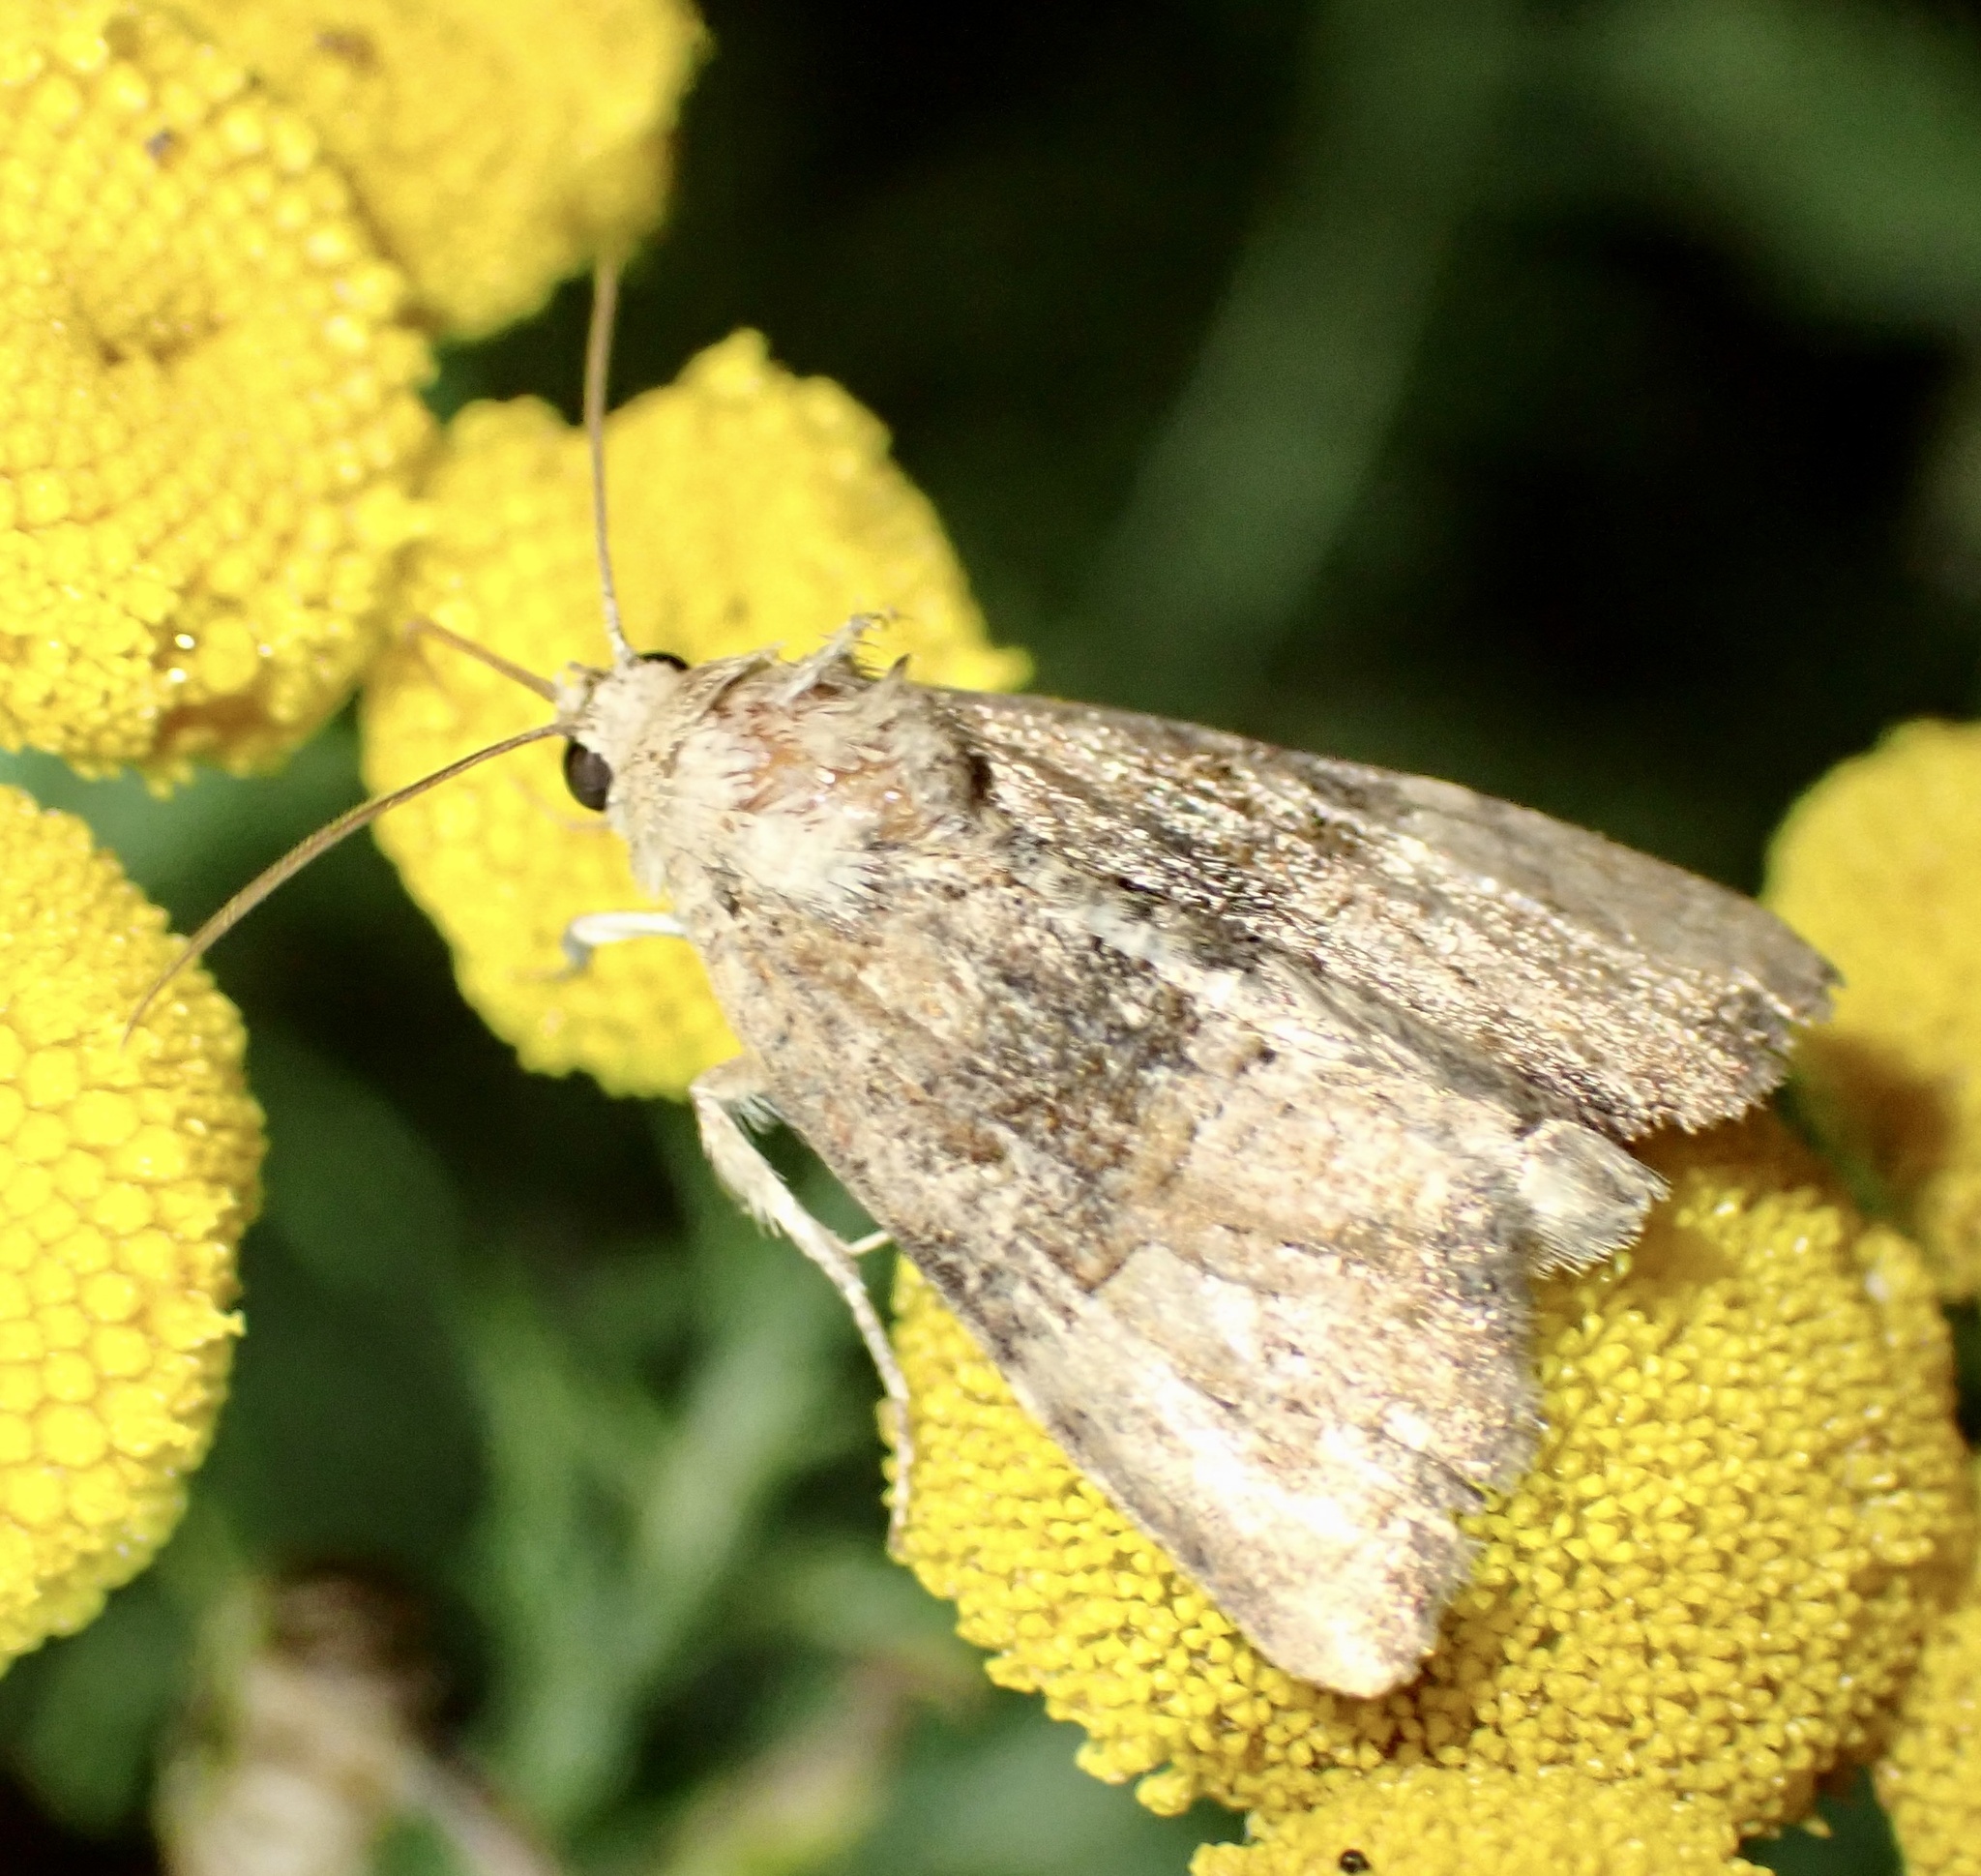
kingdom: Animalia
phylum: Arthropoda
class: Insecta
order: Lepidoptera
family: Noctuidae
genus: Mesoligia
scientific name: Mesoligia furuncula
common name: Cloaked minor
